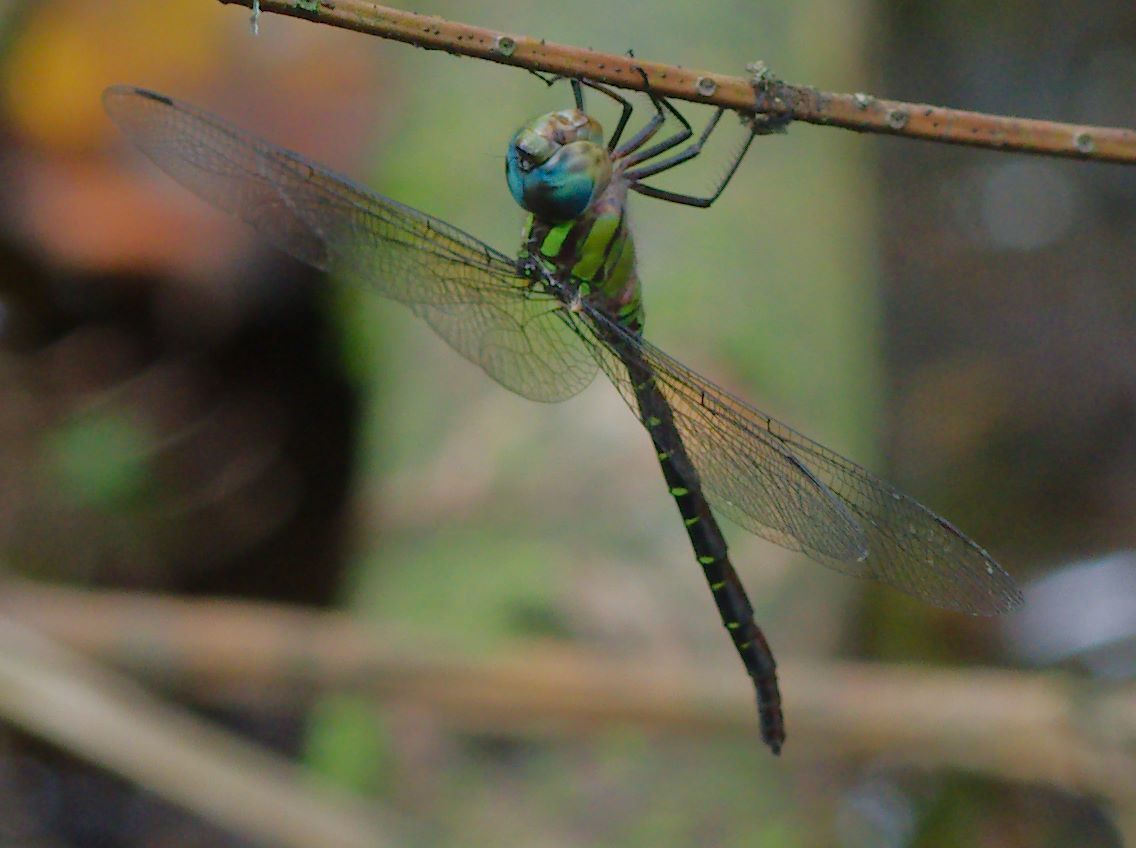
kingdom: Animalia
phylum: Arthropoda
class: Insecta
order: Odonata
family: Aeshnidae
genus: Triacanthagyna
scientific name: Triacanthagyna trifida
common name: Phantom darner
